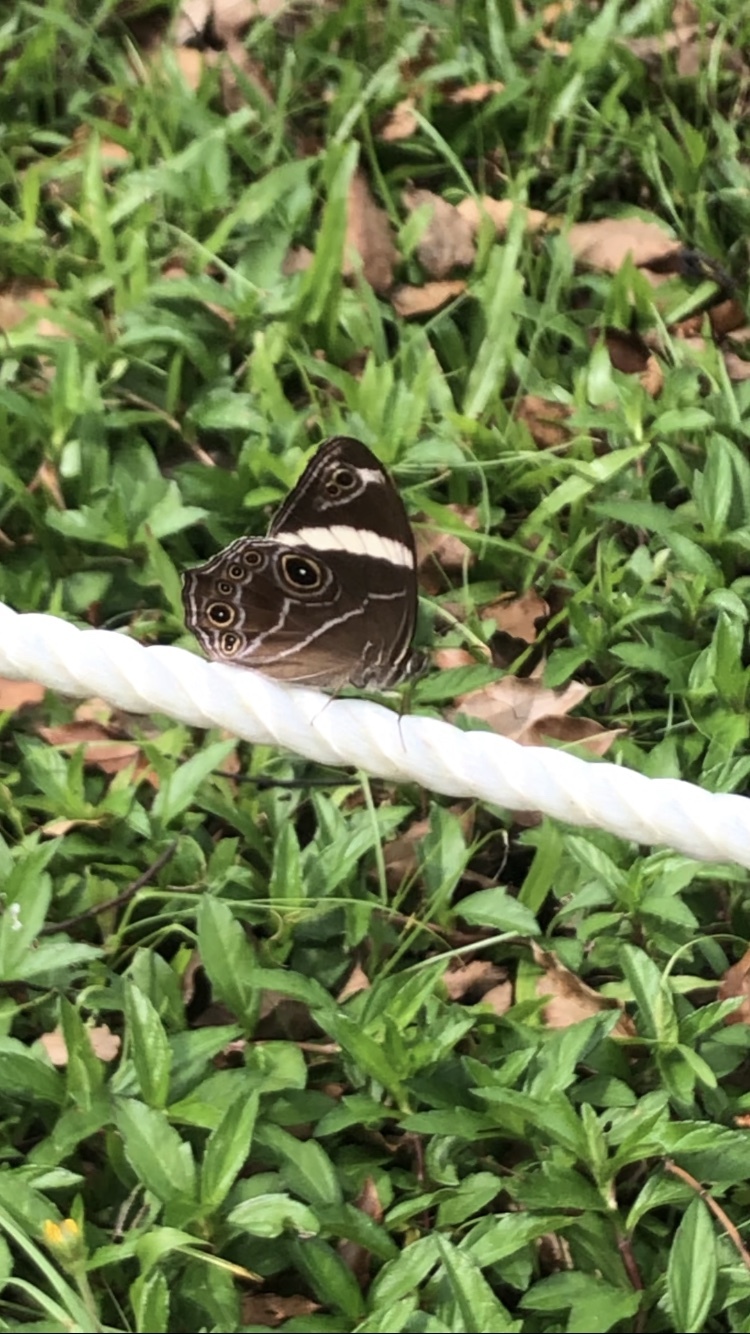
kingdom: Animalia
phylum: Arthropoda
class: Insecta
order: Lepidoptera
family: Nymphalidae
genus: Lethe
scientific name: Lethe confusa
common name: Banded treebrown
